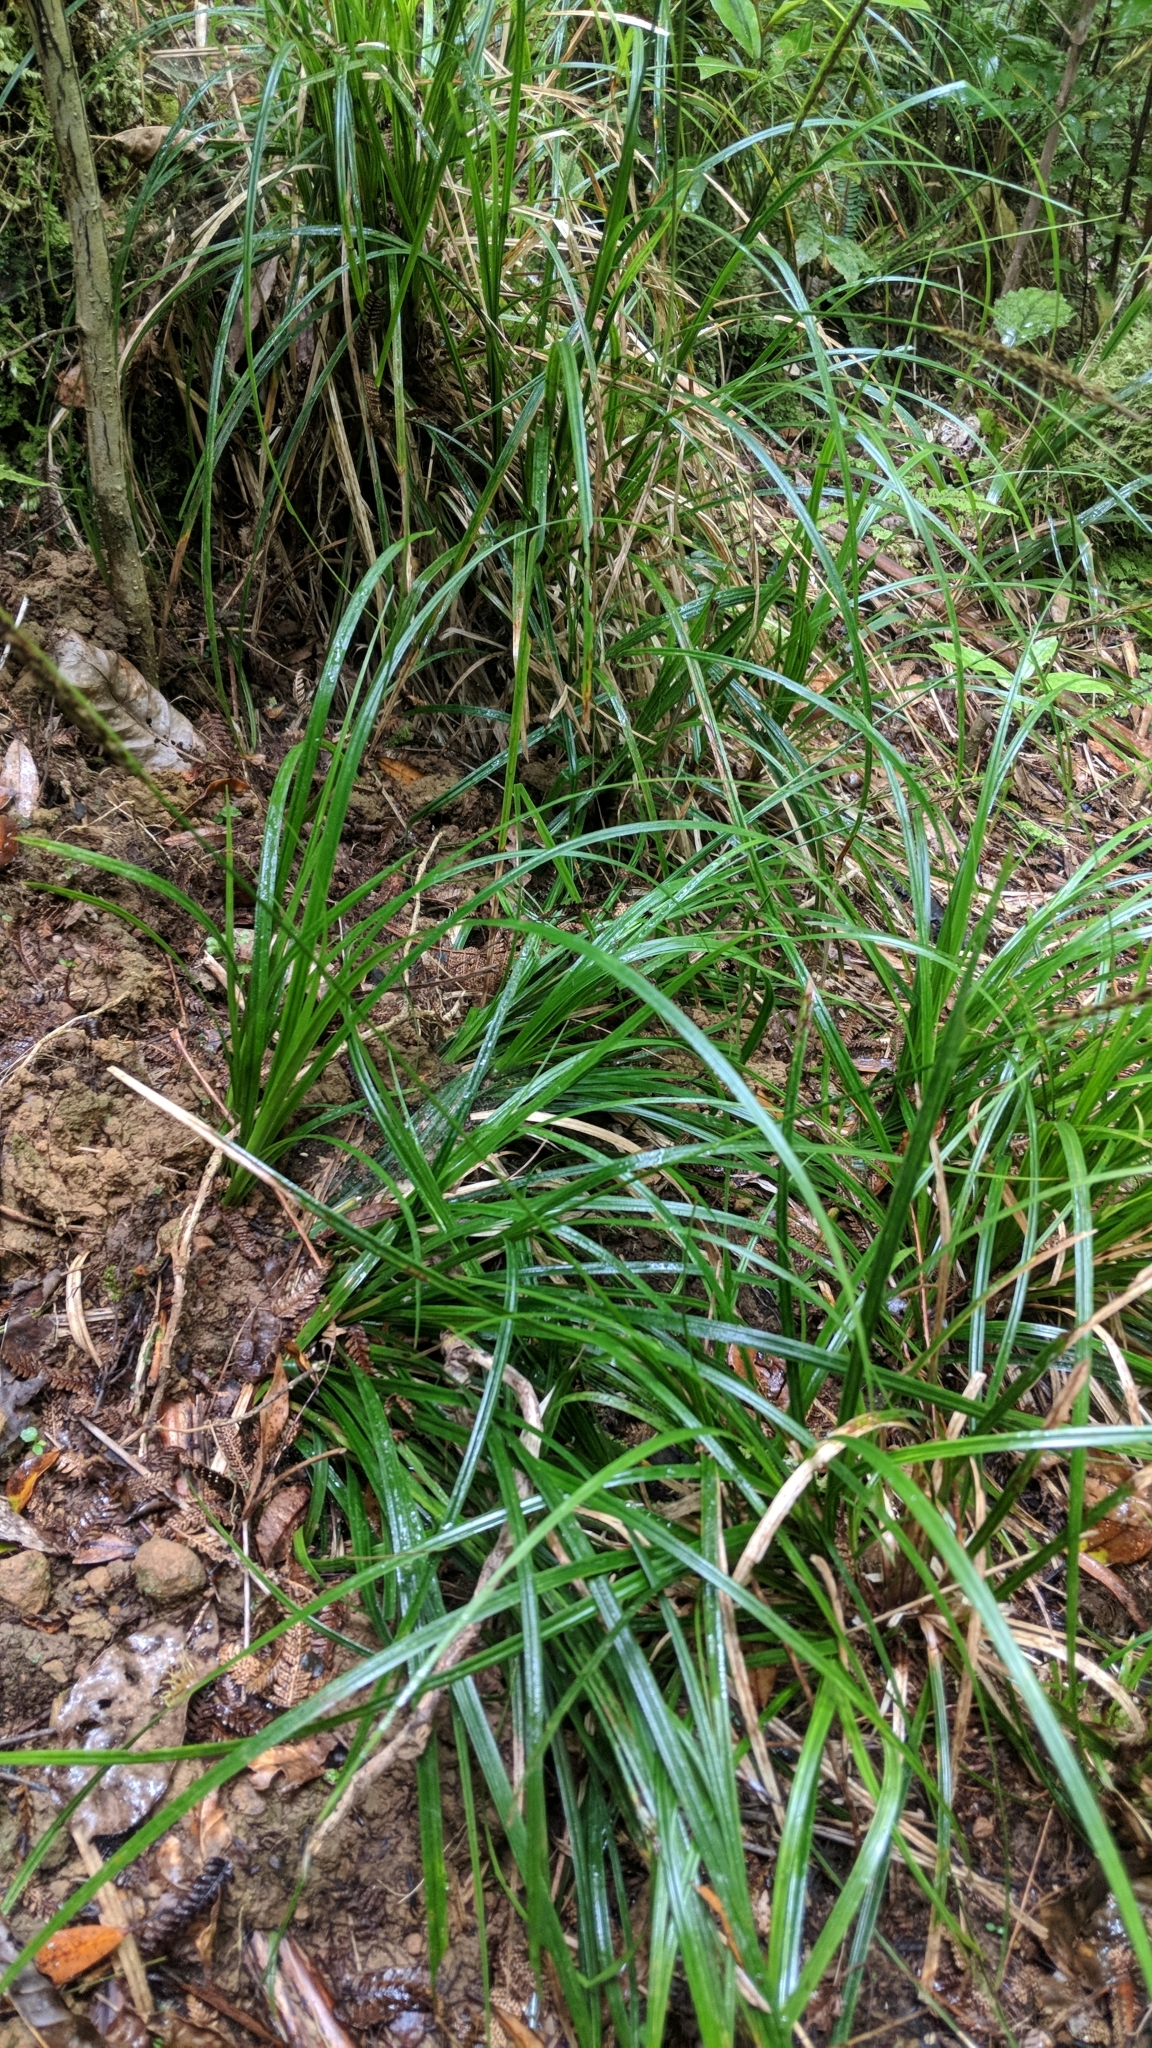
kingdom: Plantae
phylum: Tracheophyta
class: Liliopsida
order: Poales
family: Cyperaceae
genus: Carex
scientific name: Carex uncinata
